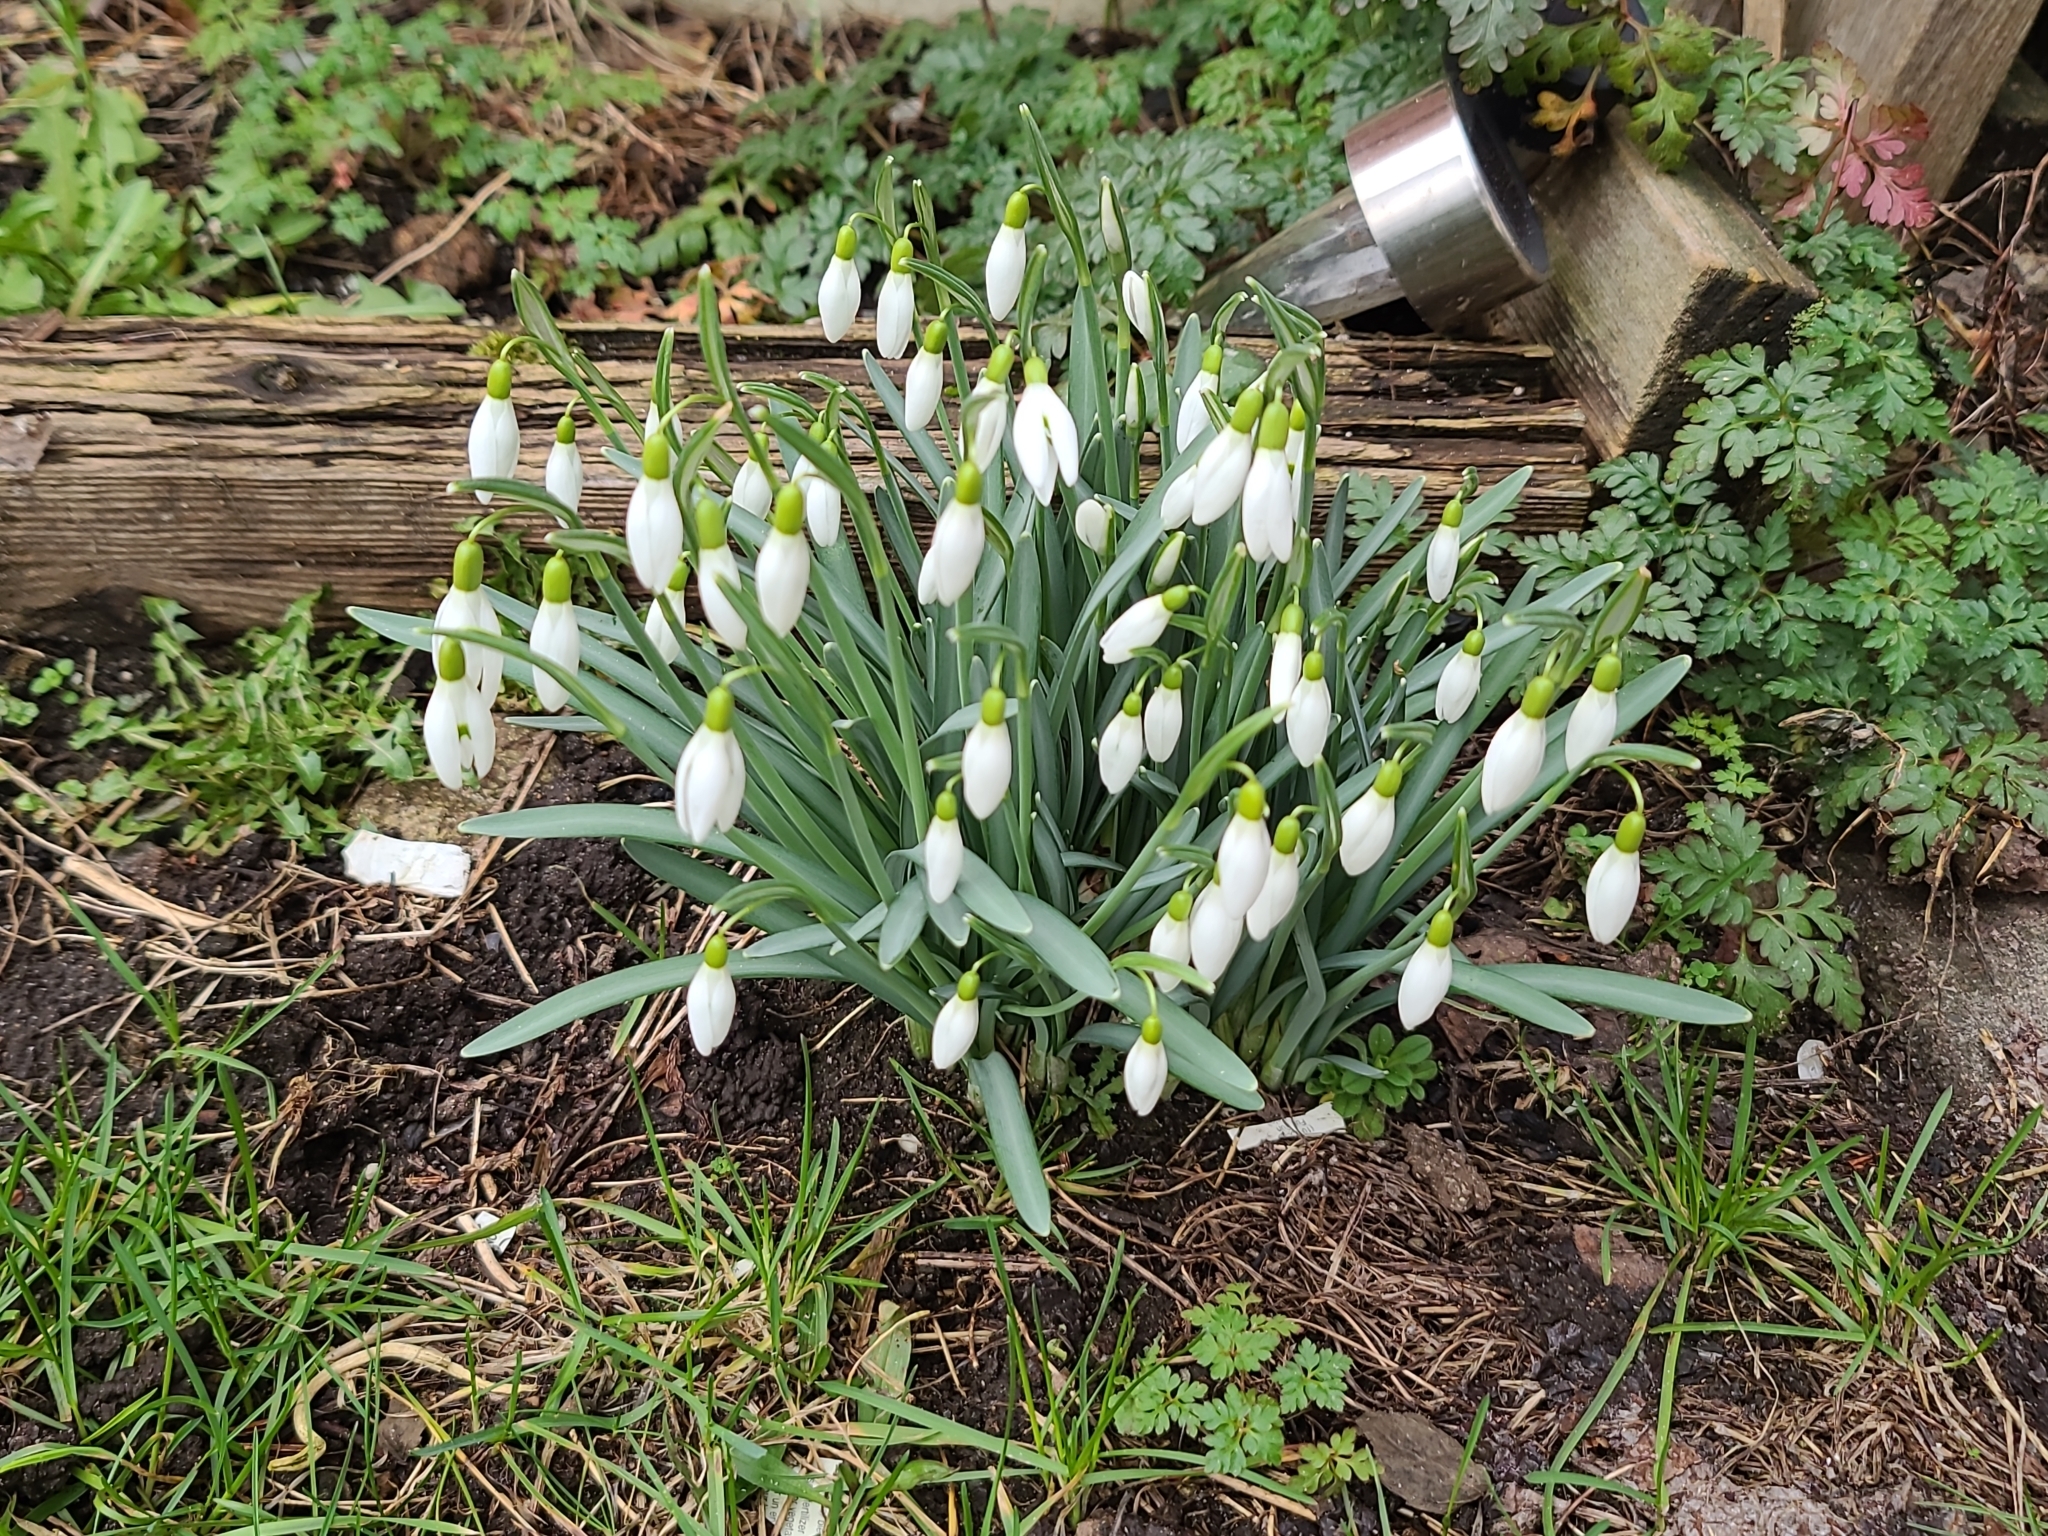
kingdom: Plantae
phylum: Tracheophyta
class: Liliopsida
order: Asparagales
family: Amaryllidaceae
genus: Galanthus
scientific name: Galanthus nivalis
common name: Snowdrop
